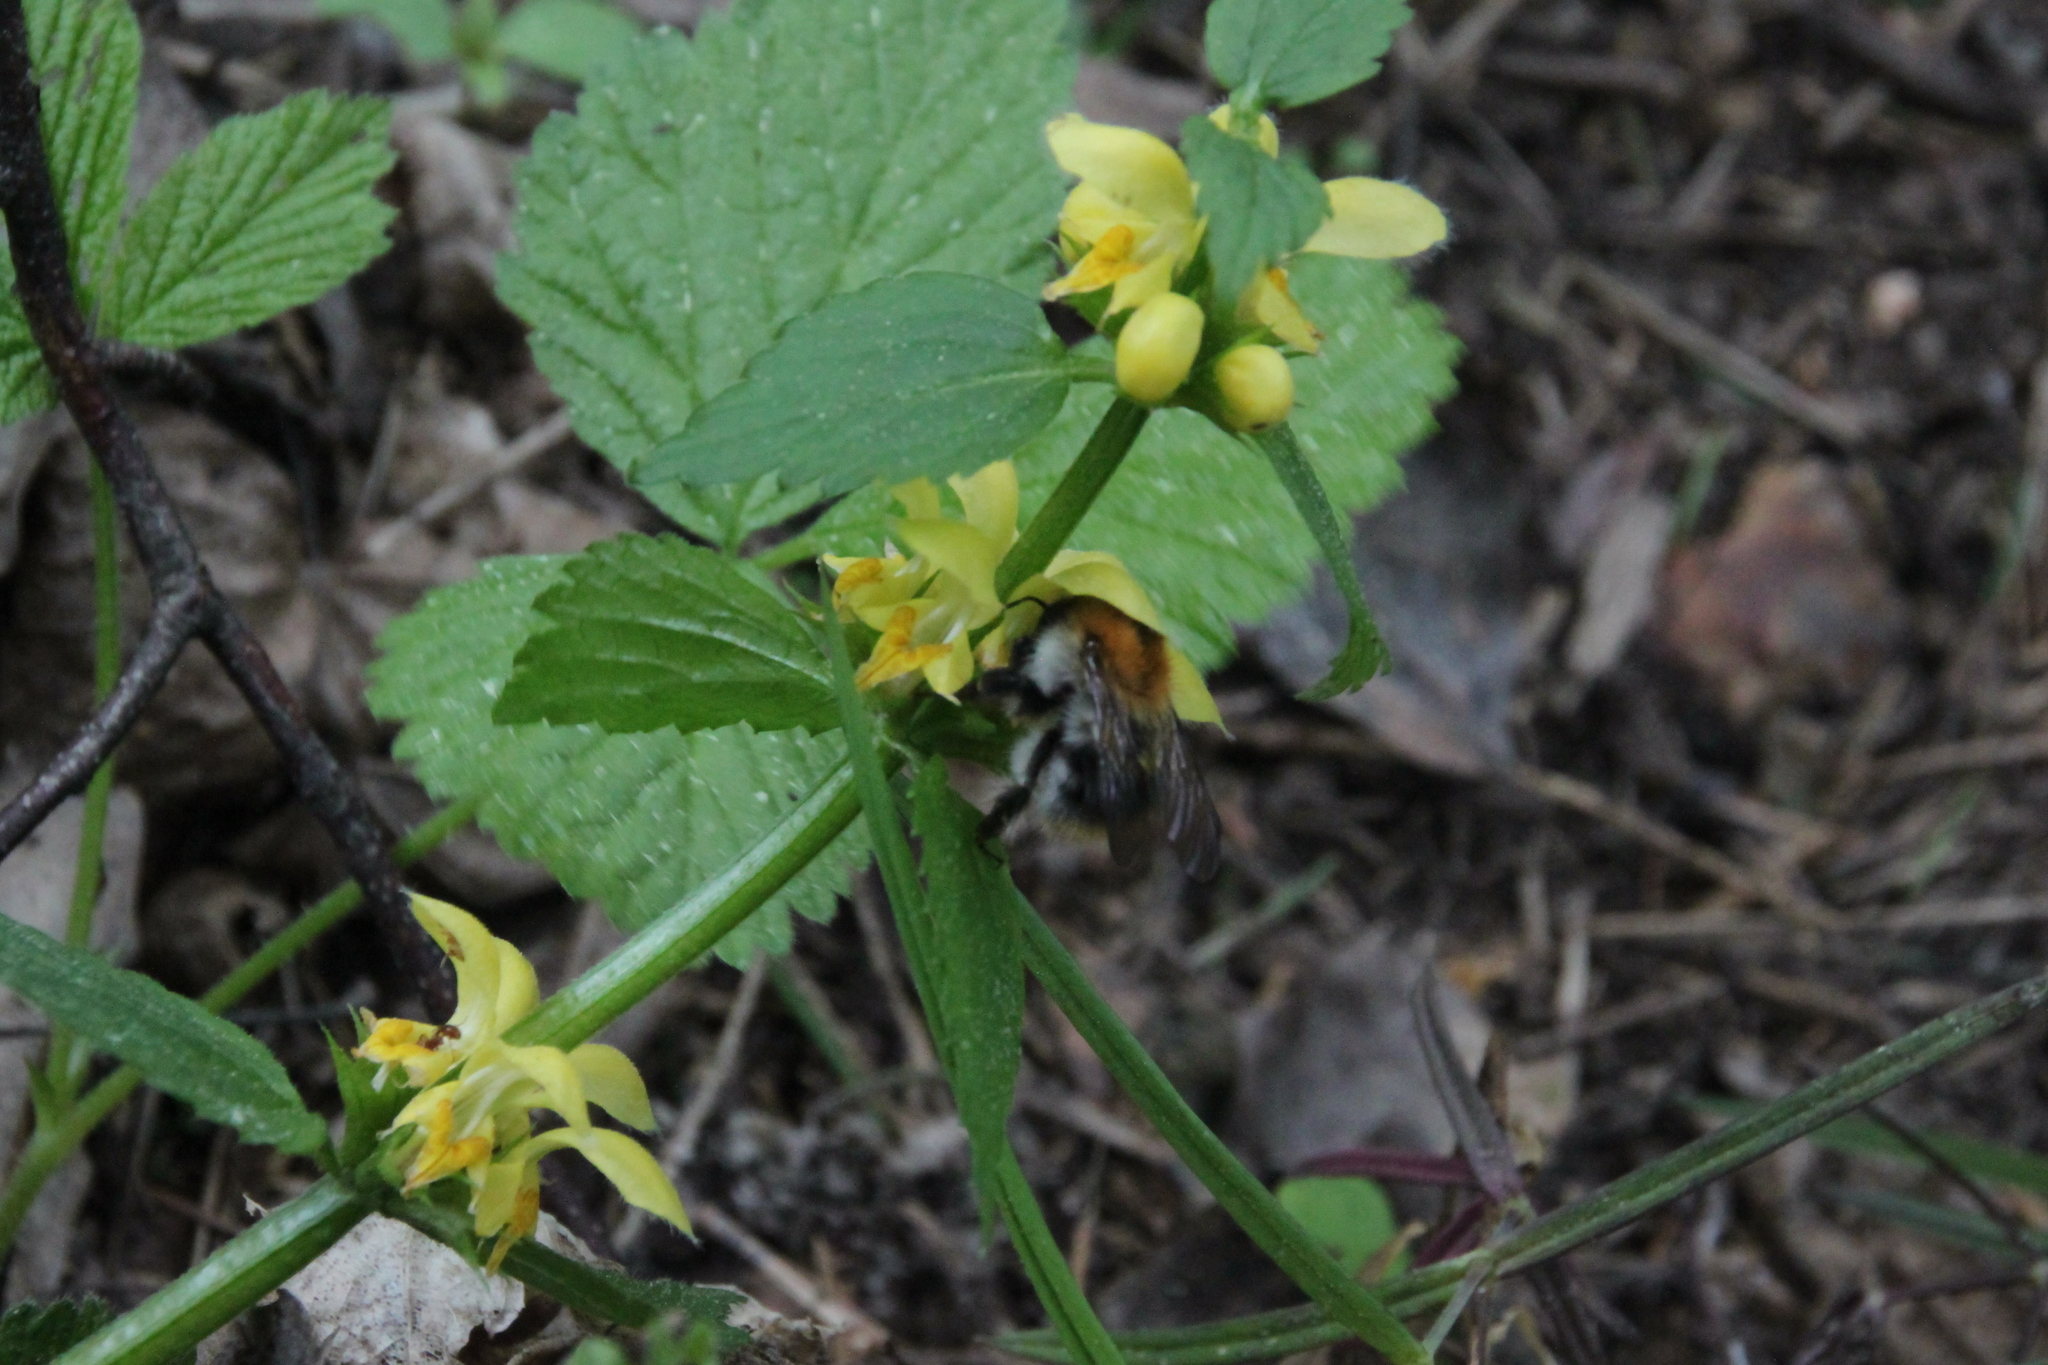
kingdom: Animalia
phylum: Arthropoda
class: Insecta
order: Hymenoptera
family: Apidae
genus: Bombus
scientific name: Bombus pascuorum
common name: Common carder bee
